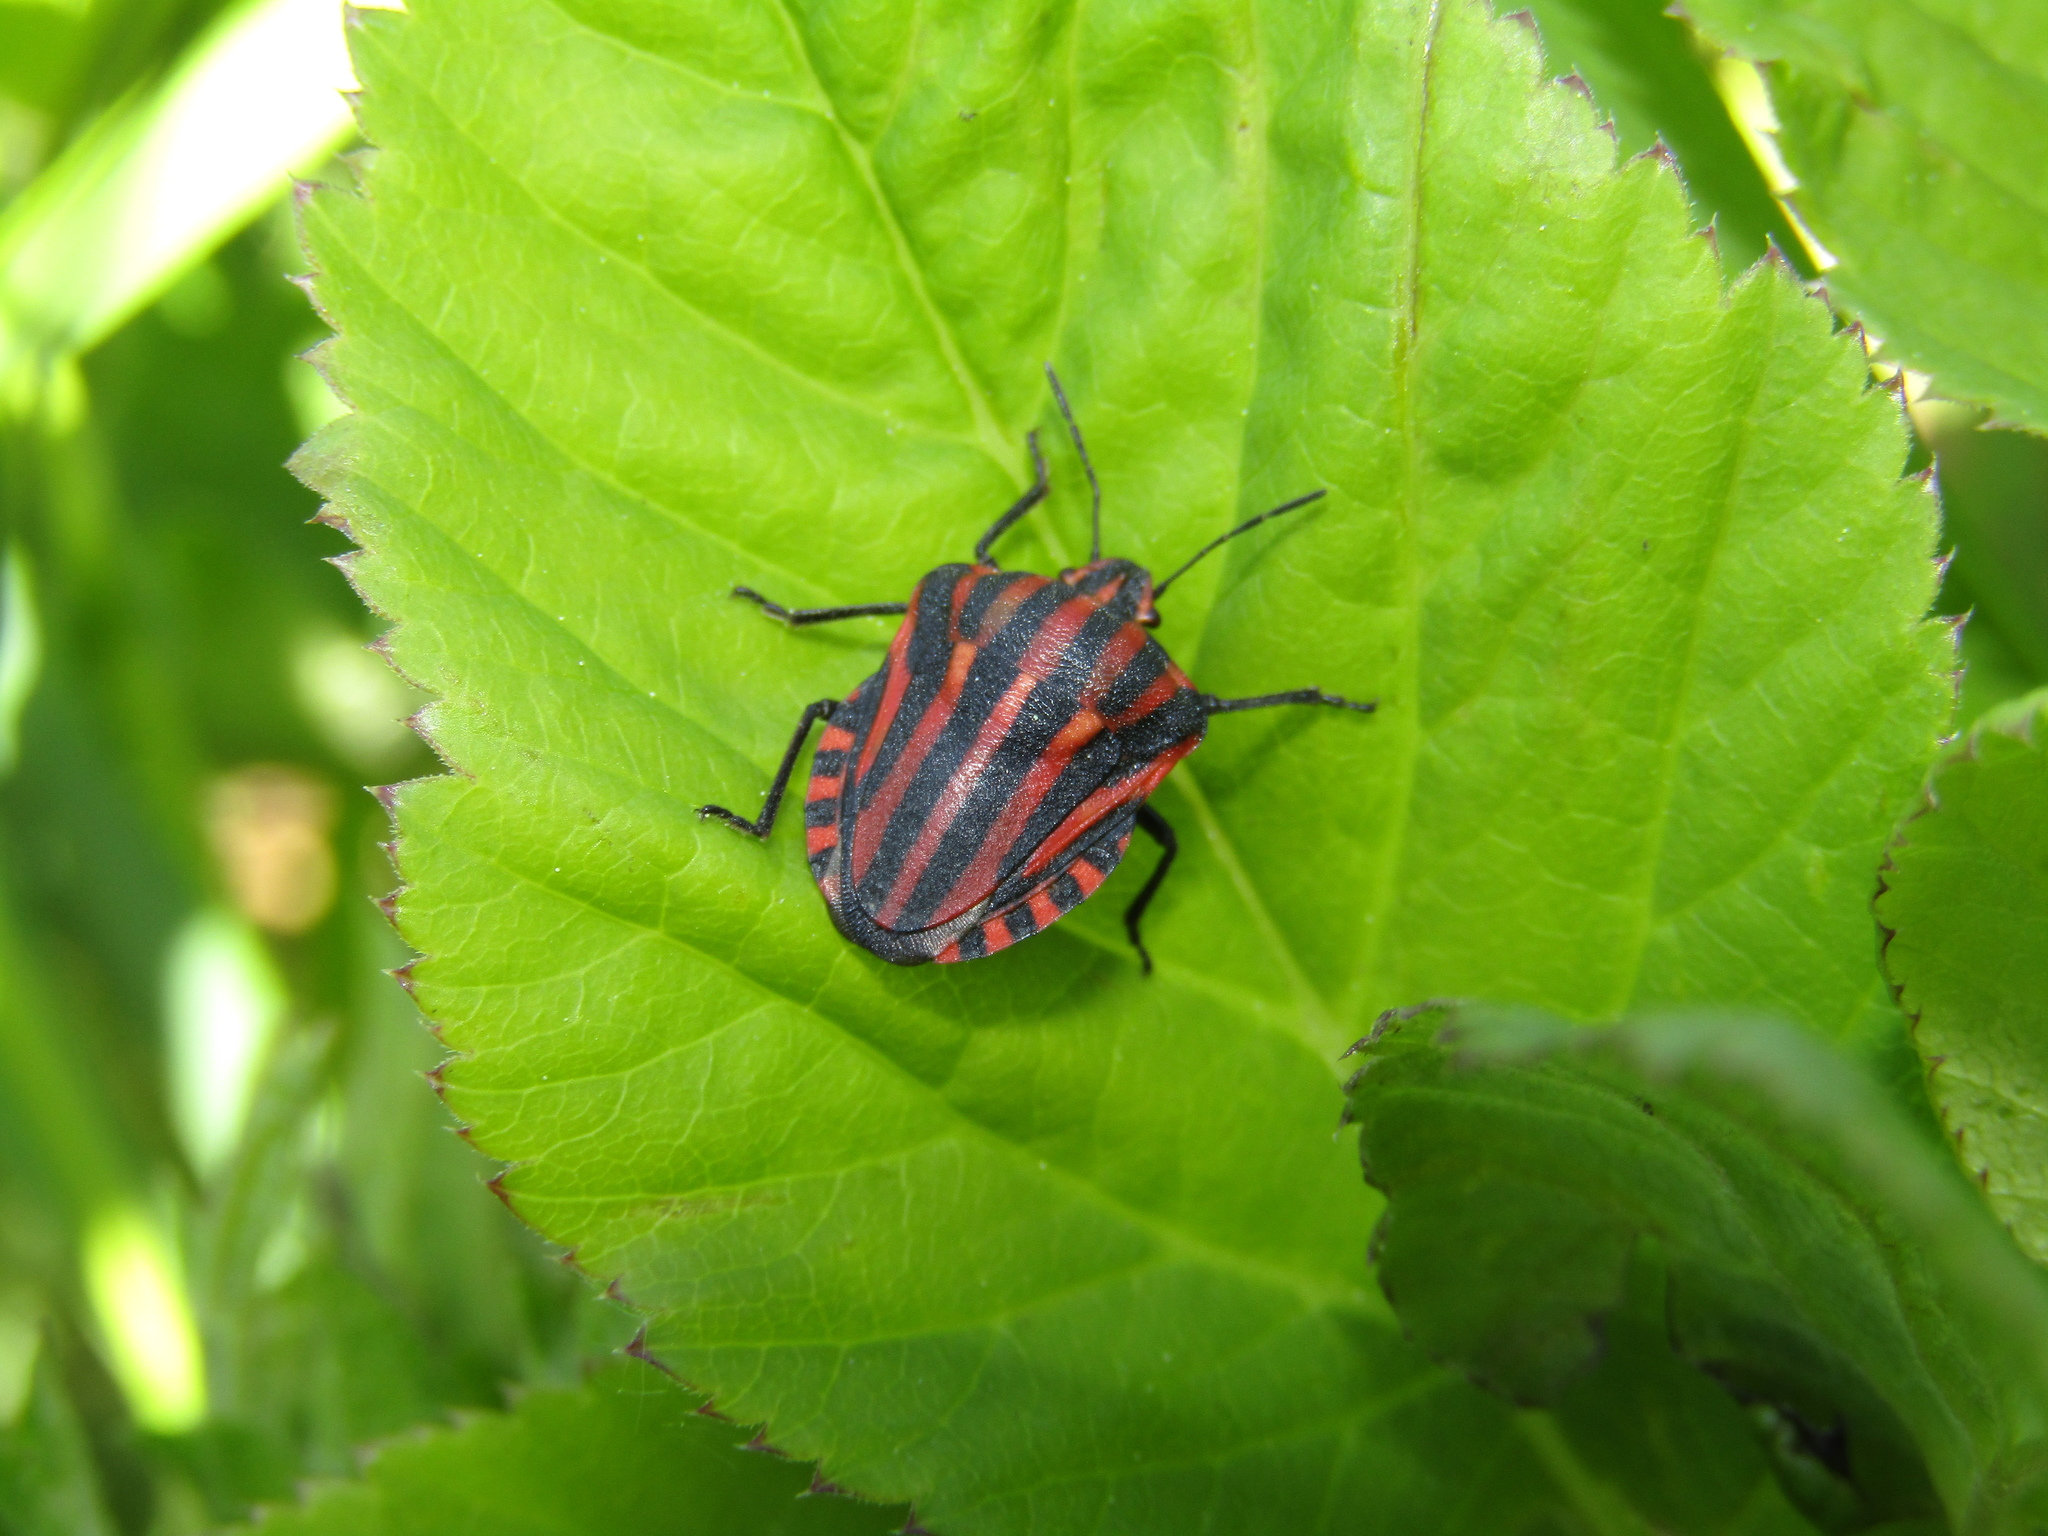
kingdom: Animalia
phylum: Arthropoda
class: Insecta
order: Hemiptera
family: Pentatomidae
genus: Graphosoma
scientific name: Graphosoma italicum
